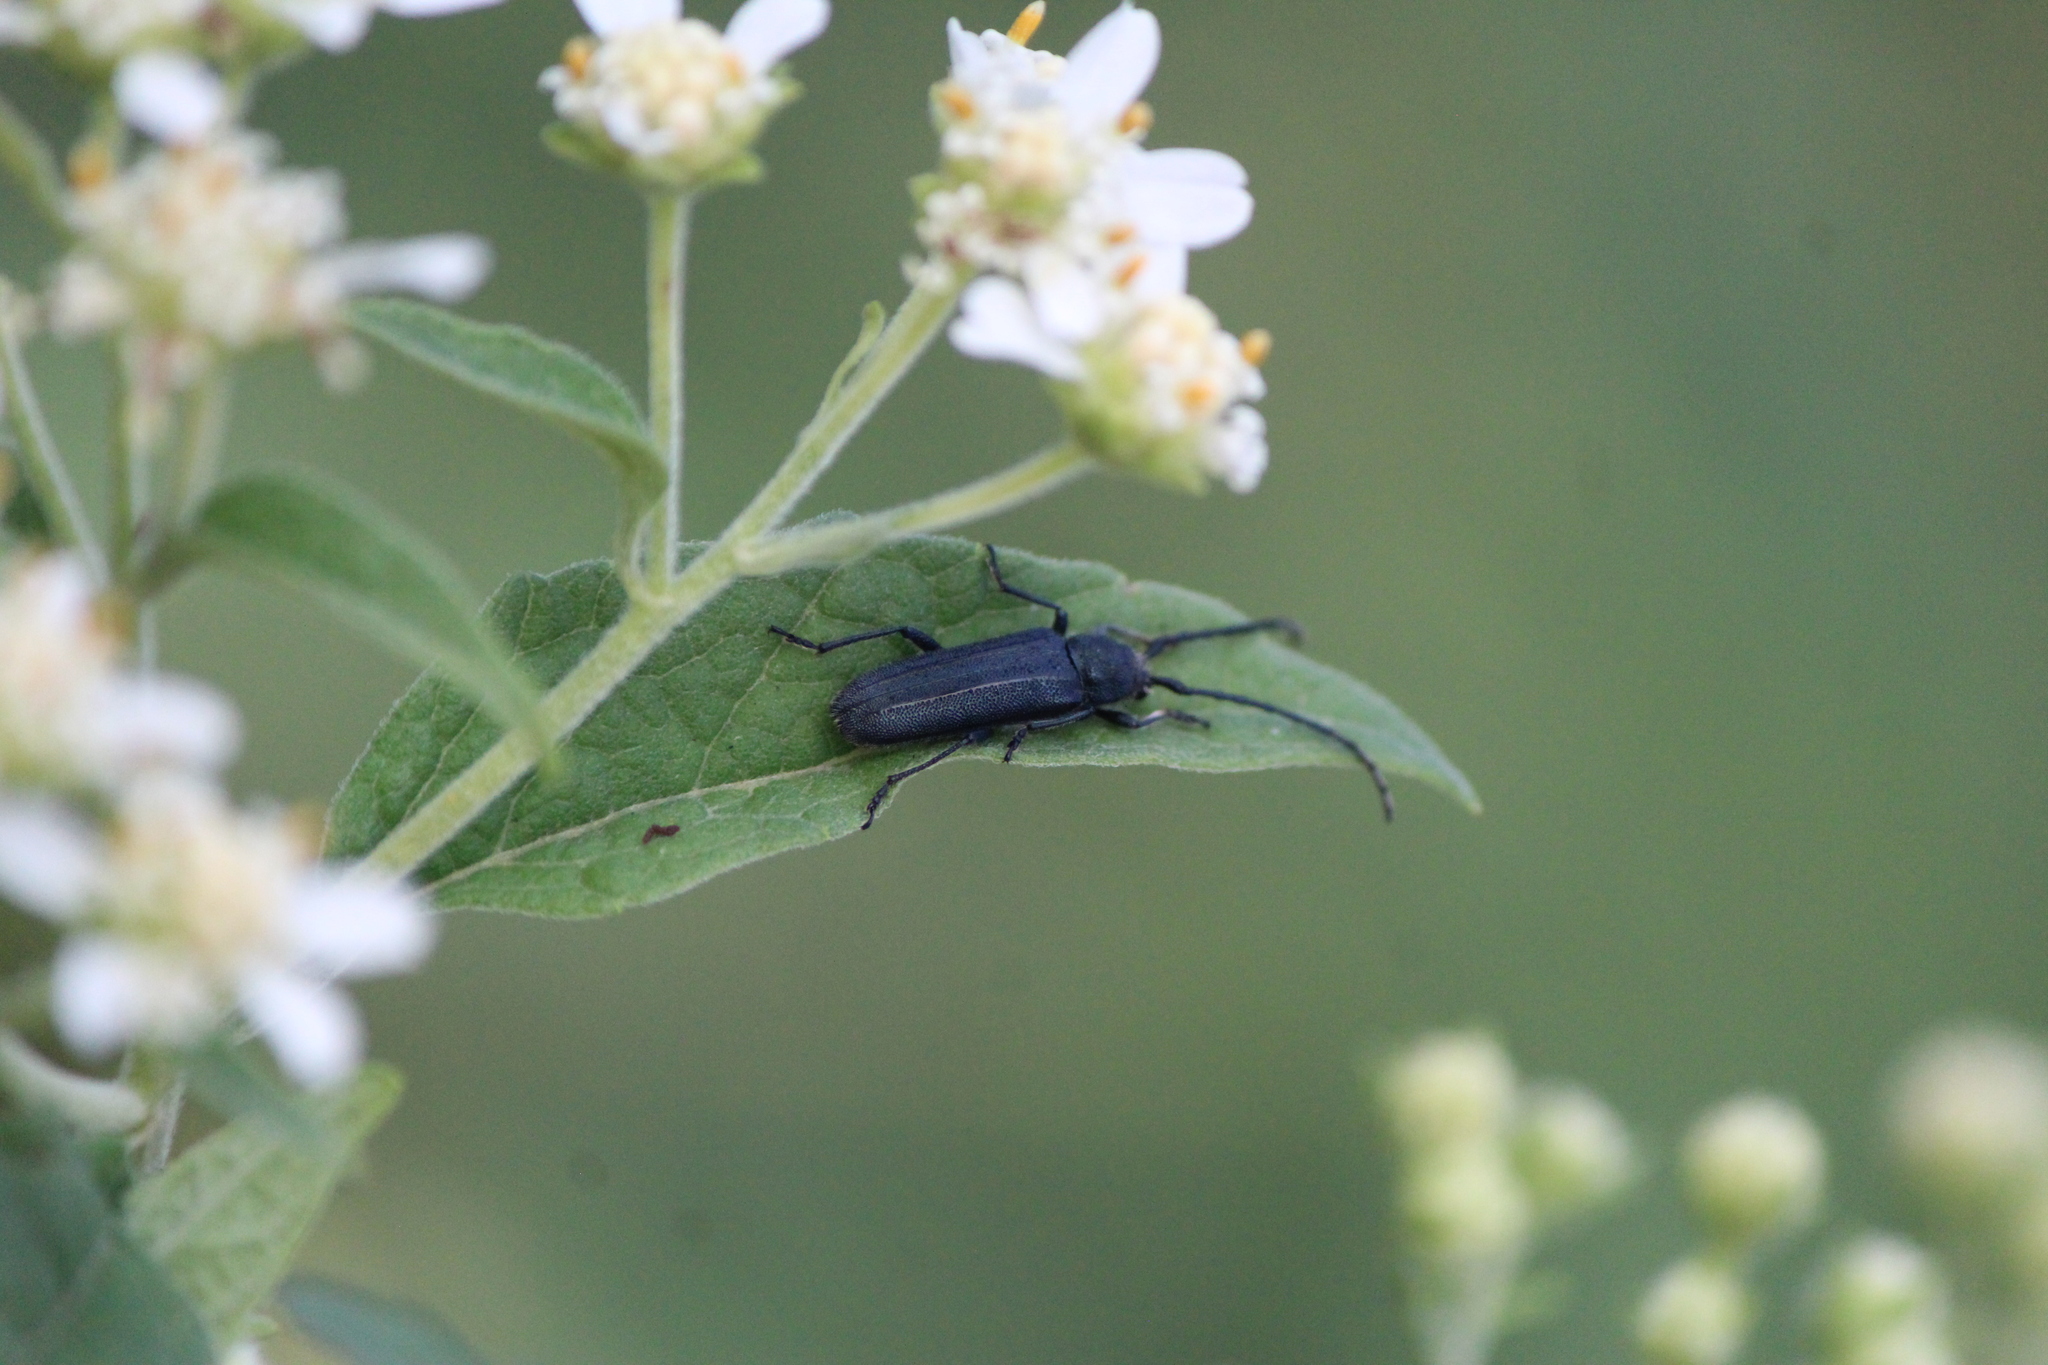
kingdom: Animalia
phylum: Arthropoda
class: Insecta
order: Coleoptera
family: Cerambycidae
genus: Mannophorus
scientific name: Mannophorus laetus
